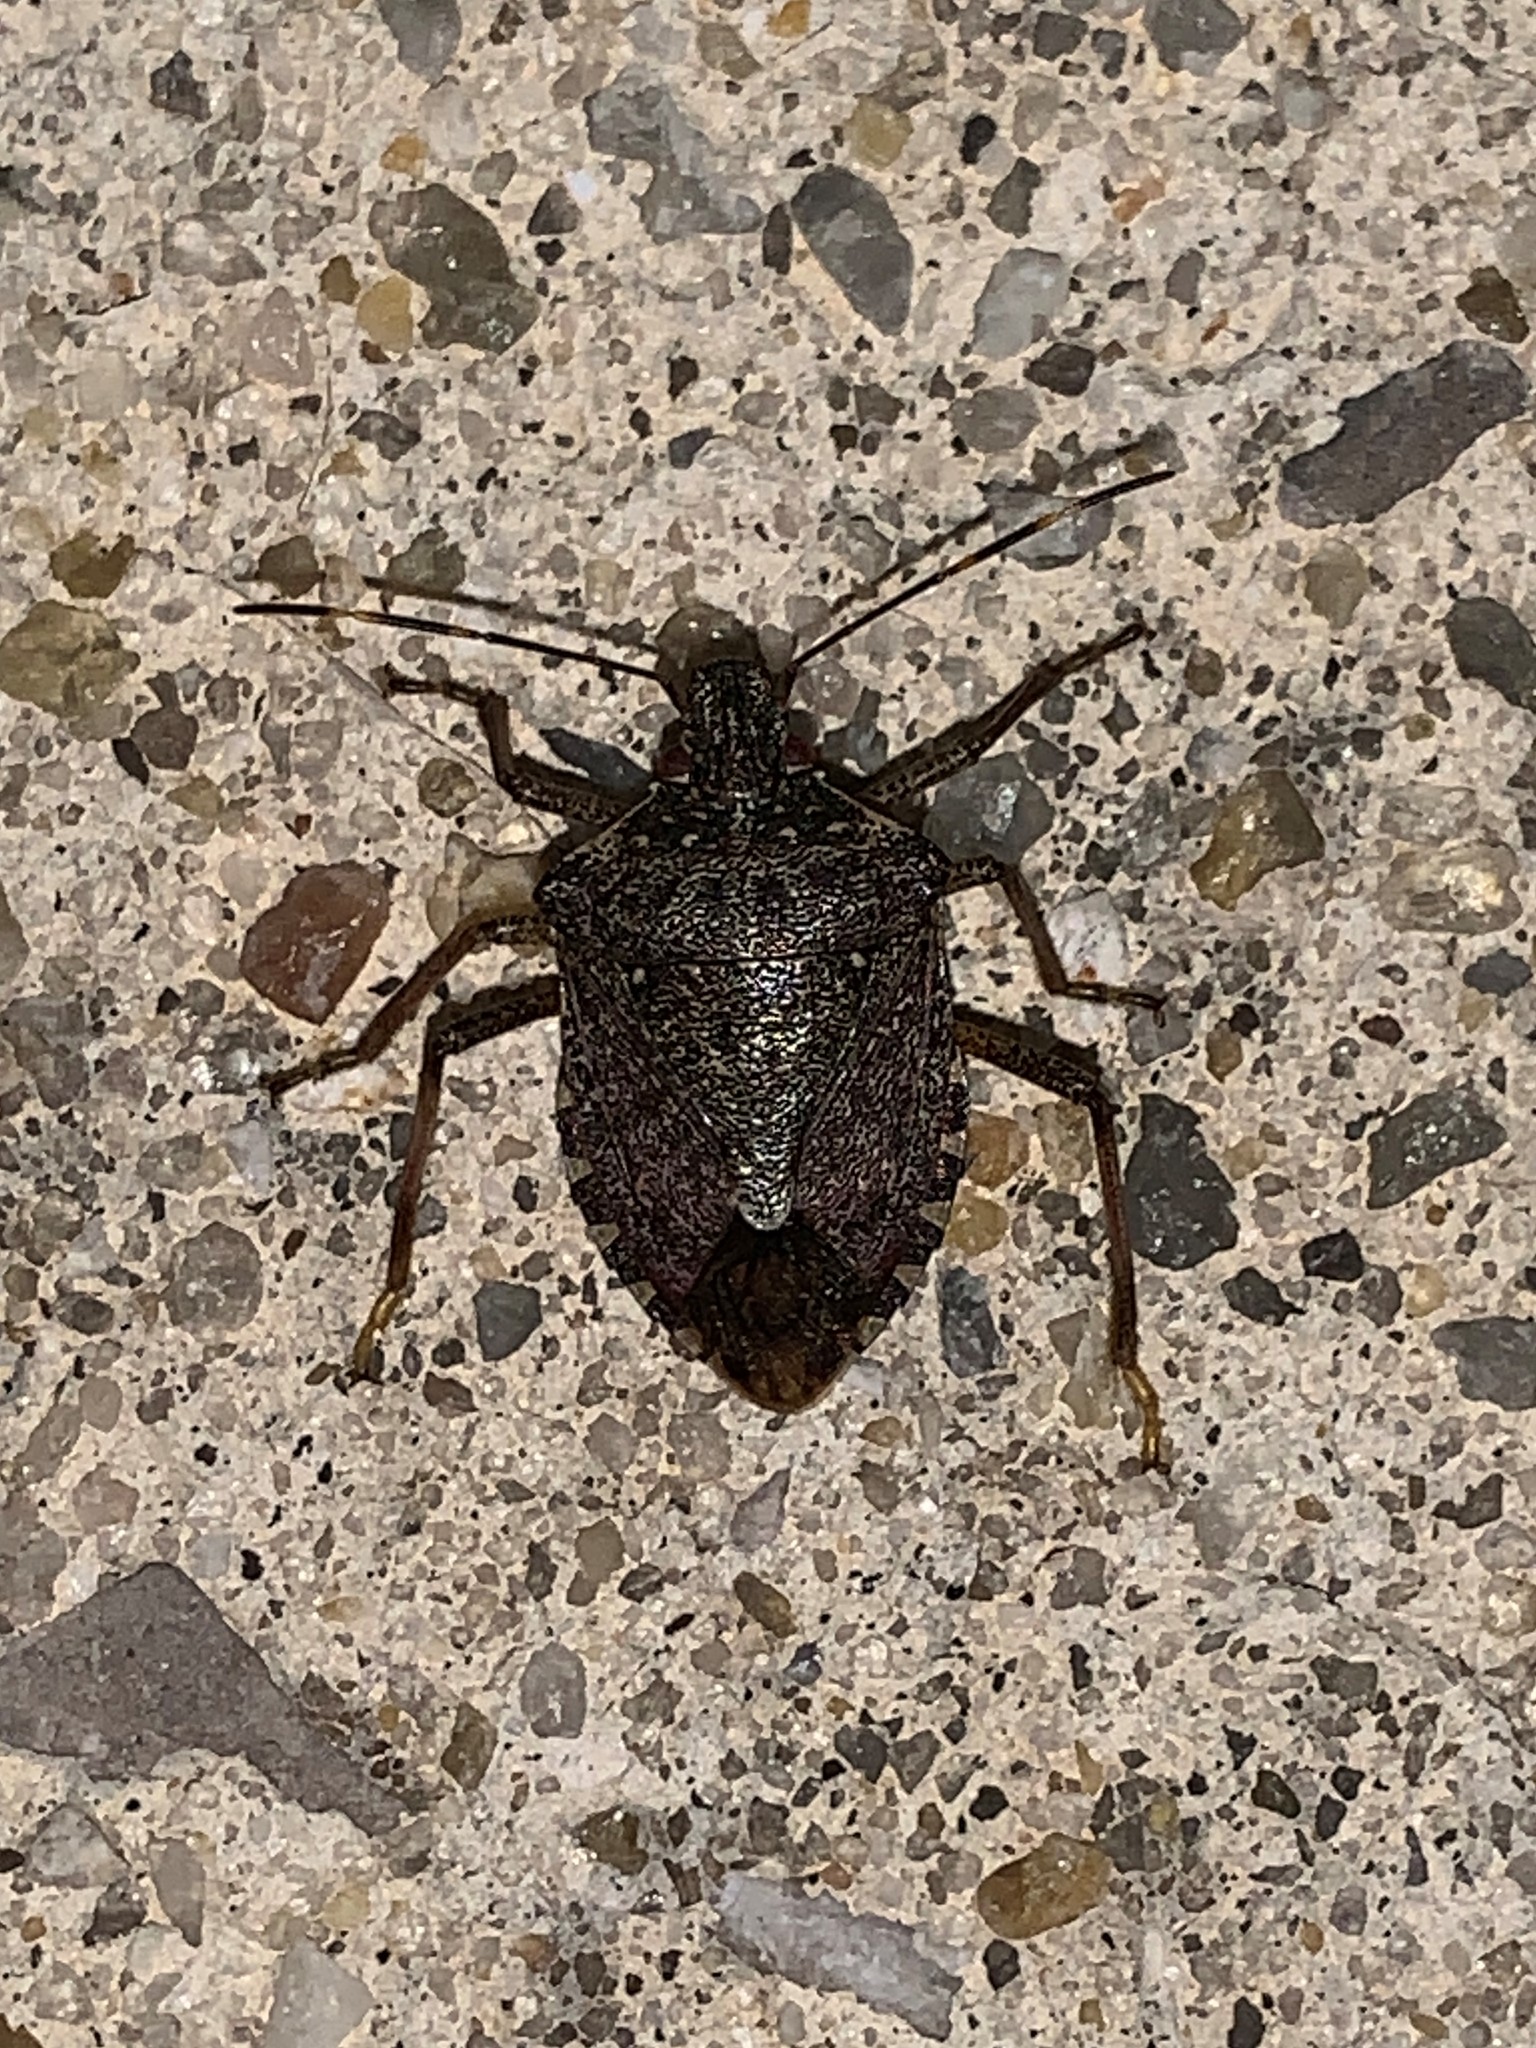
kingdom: Animalia
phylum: Arthropoda
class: Insecta
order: Hemiptera
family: Pentatomidae
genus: Halyomorpha
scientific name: Halyomorpha halys
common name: Brown marmorated stink bug
